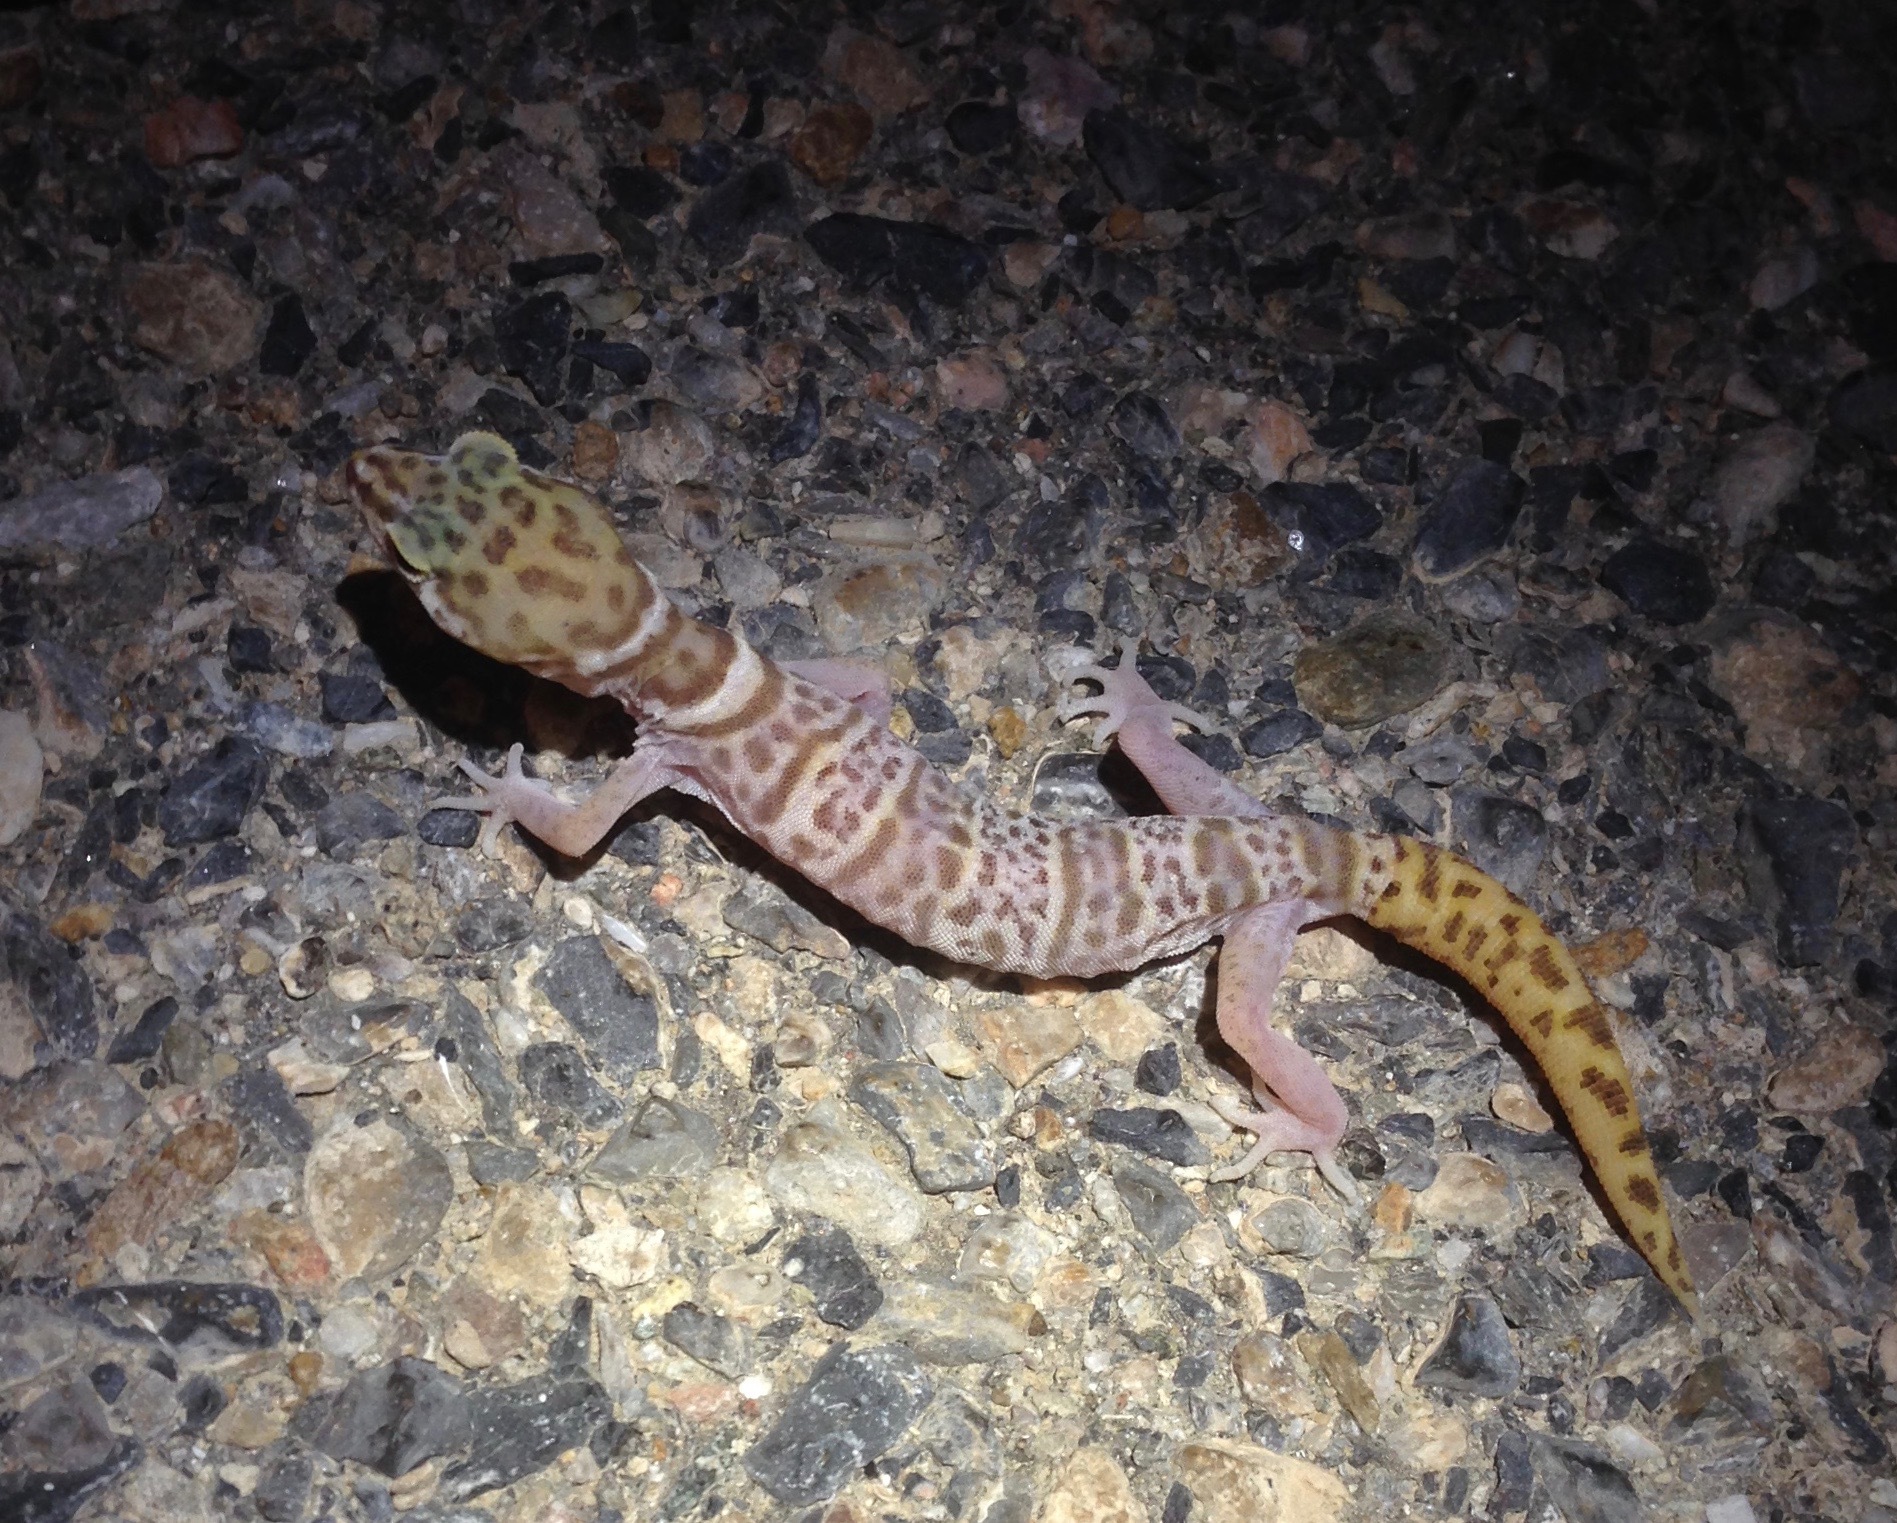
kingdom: Animalia
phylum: Chordata
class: Squamata
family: Eublepharidae
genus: Coleonyx
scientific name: Coleonyx variegatus
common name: Western banded gecko
